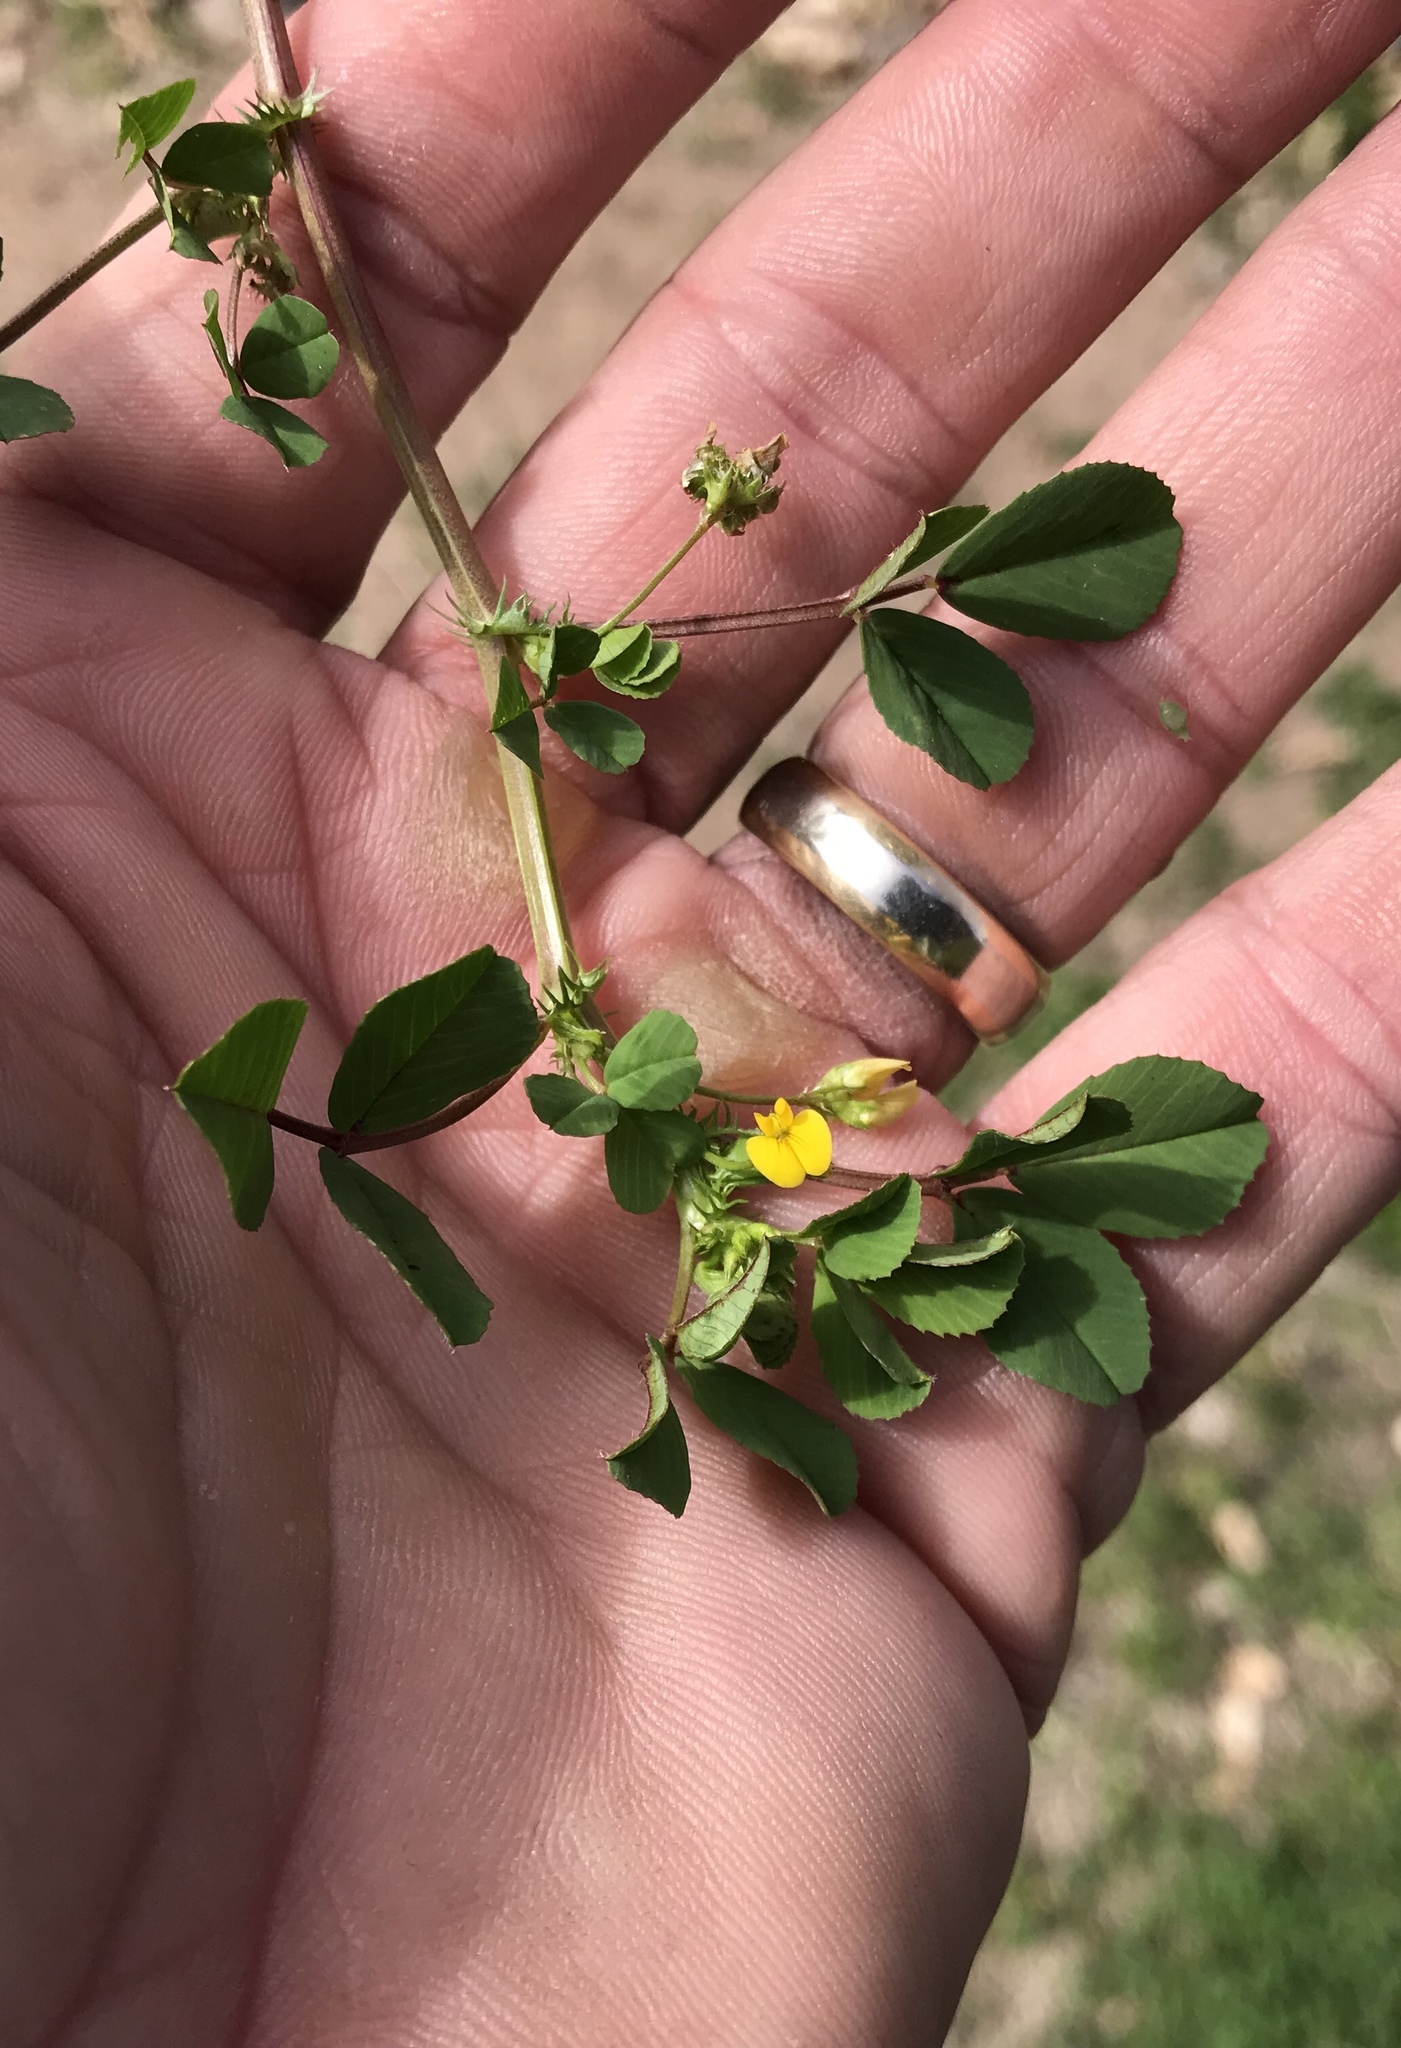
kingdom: Plantae
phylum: Tracheophyta
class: Magnoliopsida
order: Fabales
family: Fabaceae
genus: Medicago
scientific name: Medicago polymorpha
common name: Burclover
